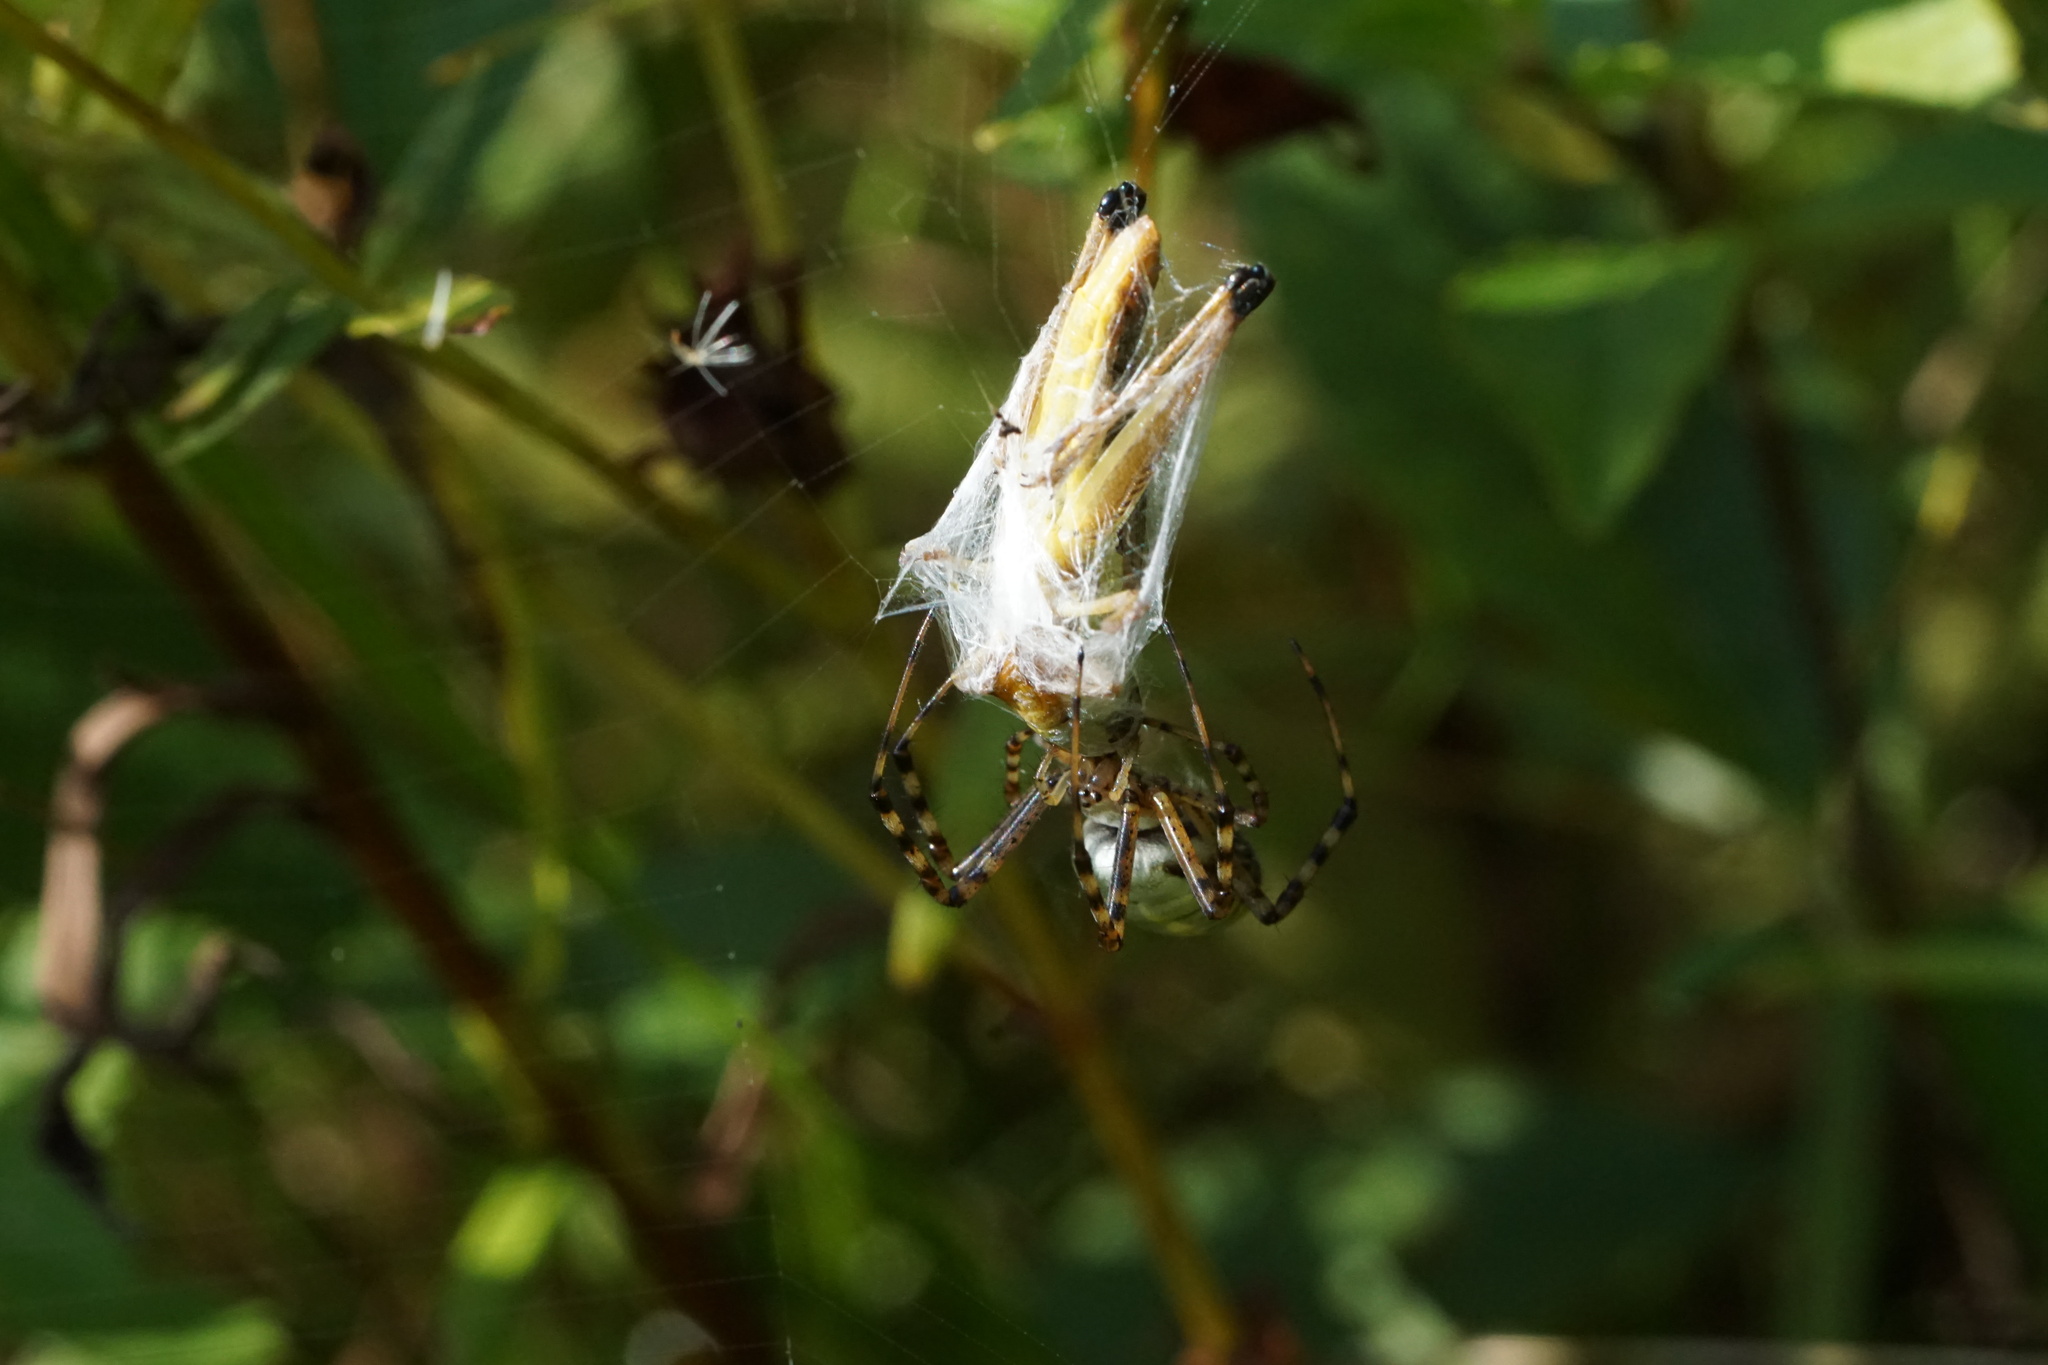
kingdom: Animalia
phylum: Arthropoda
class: Arachnida
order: Araneae
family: Araneidae
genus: Argiope
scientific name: Argiope trifasciata
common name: Banded garden spider
